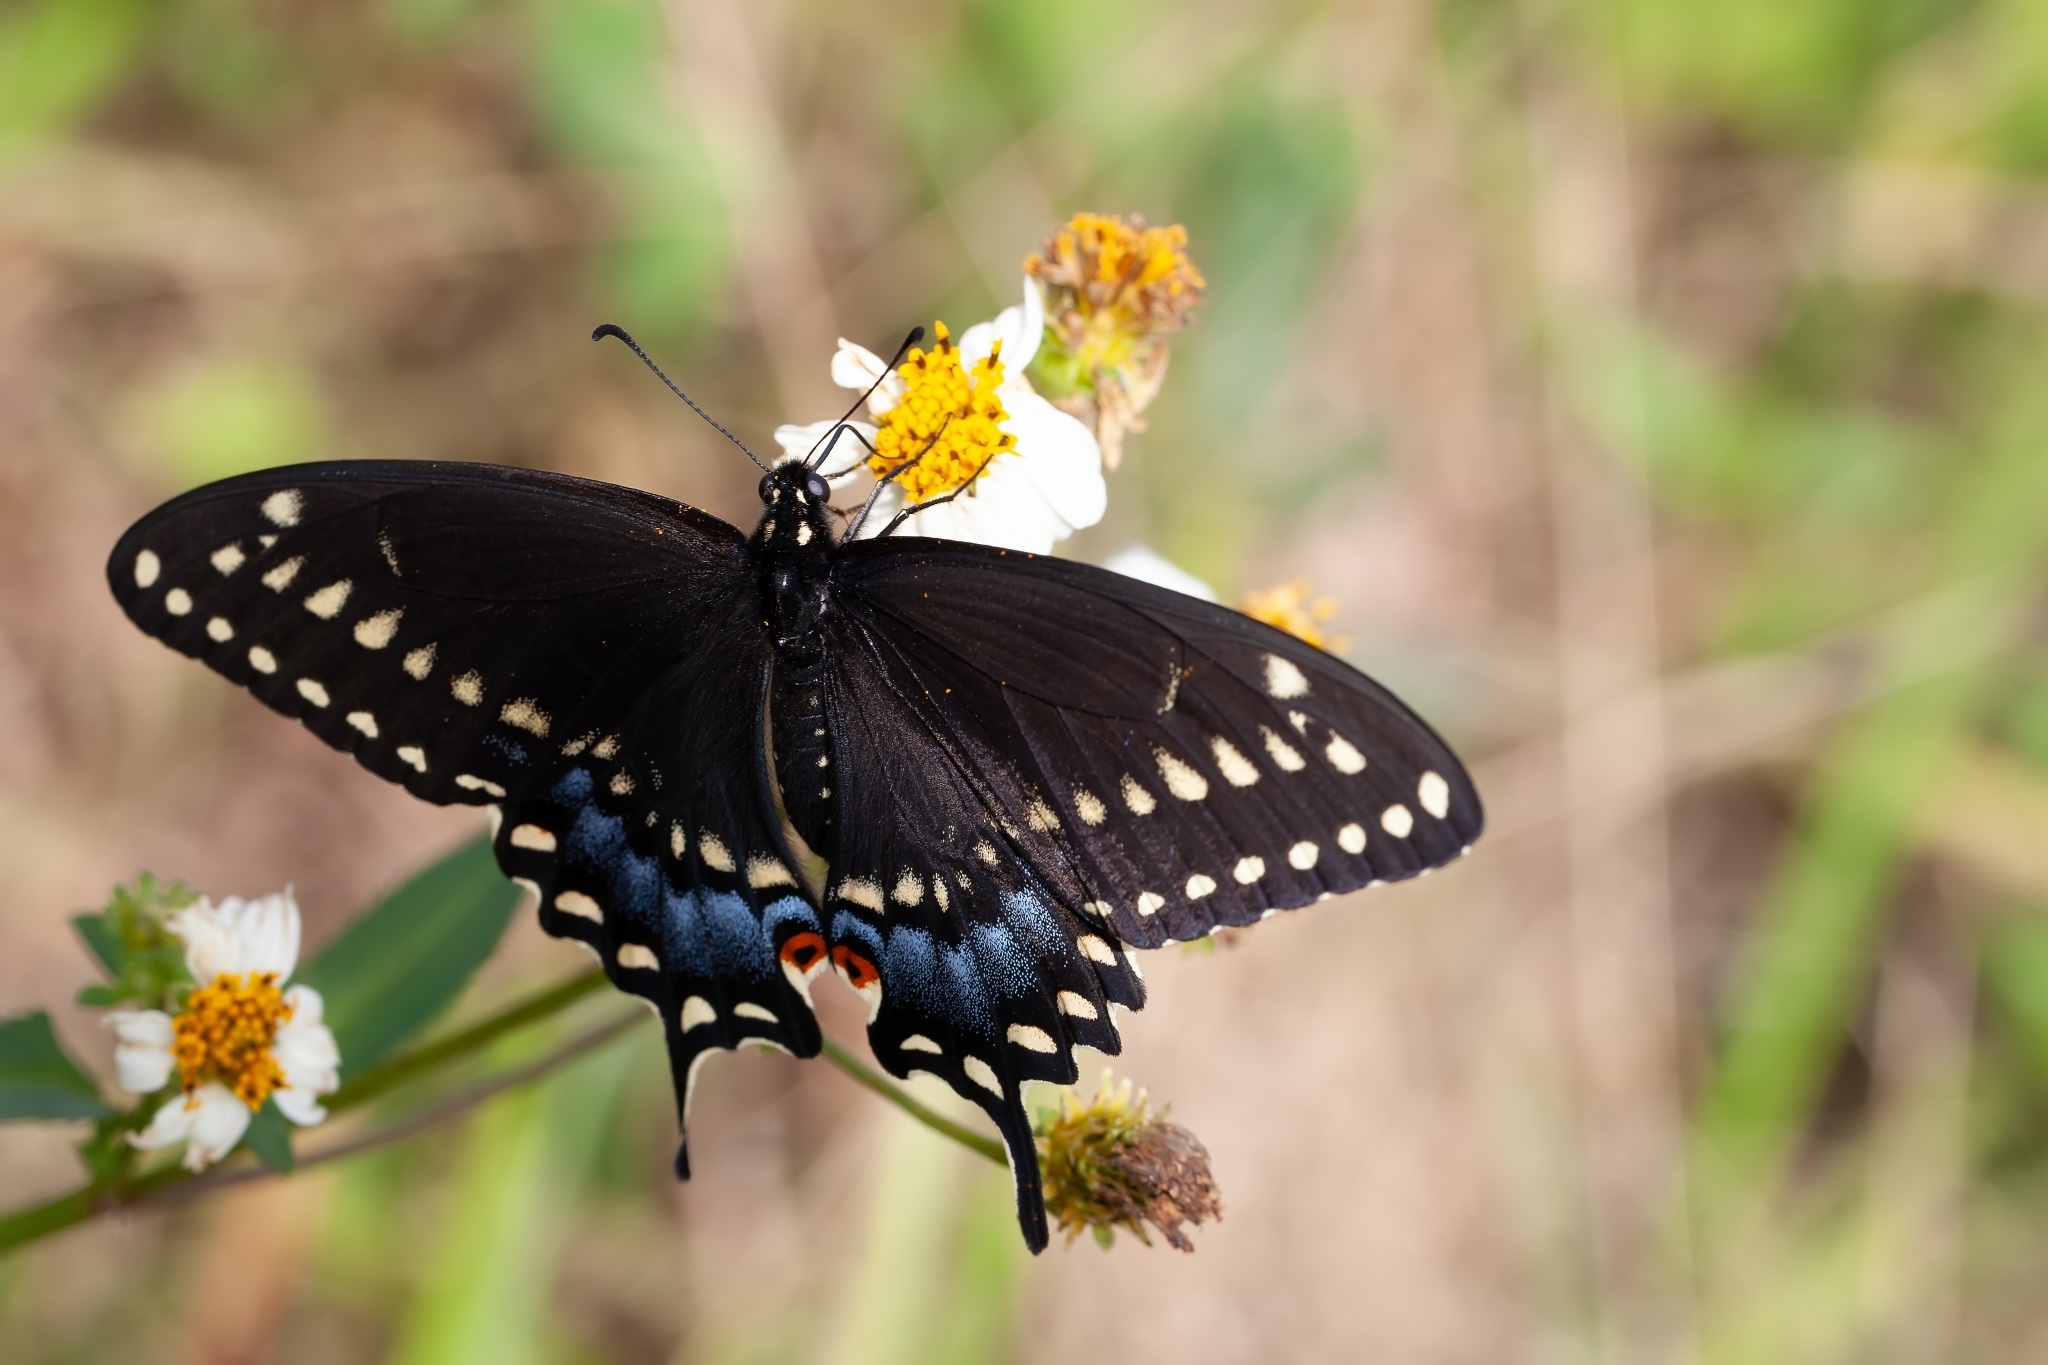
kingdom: Animalia
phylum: Arthropoda
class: Insecta
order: Lepidoptera
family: Papilionidae
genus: Papilio
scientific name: Papilio polyxenes
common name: Black swallowtail
